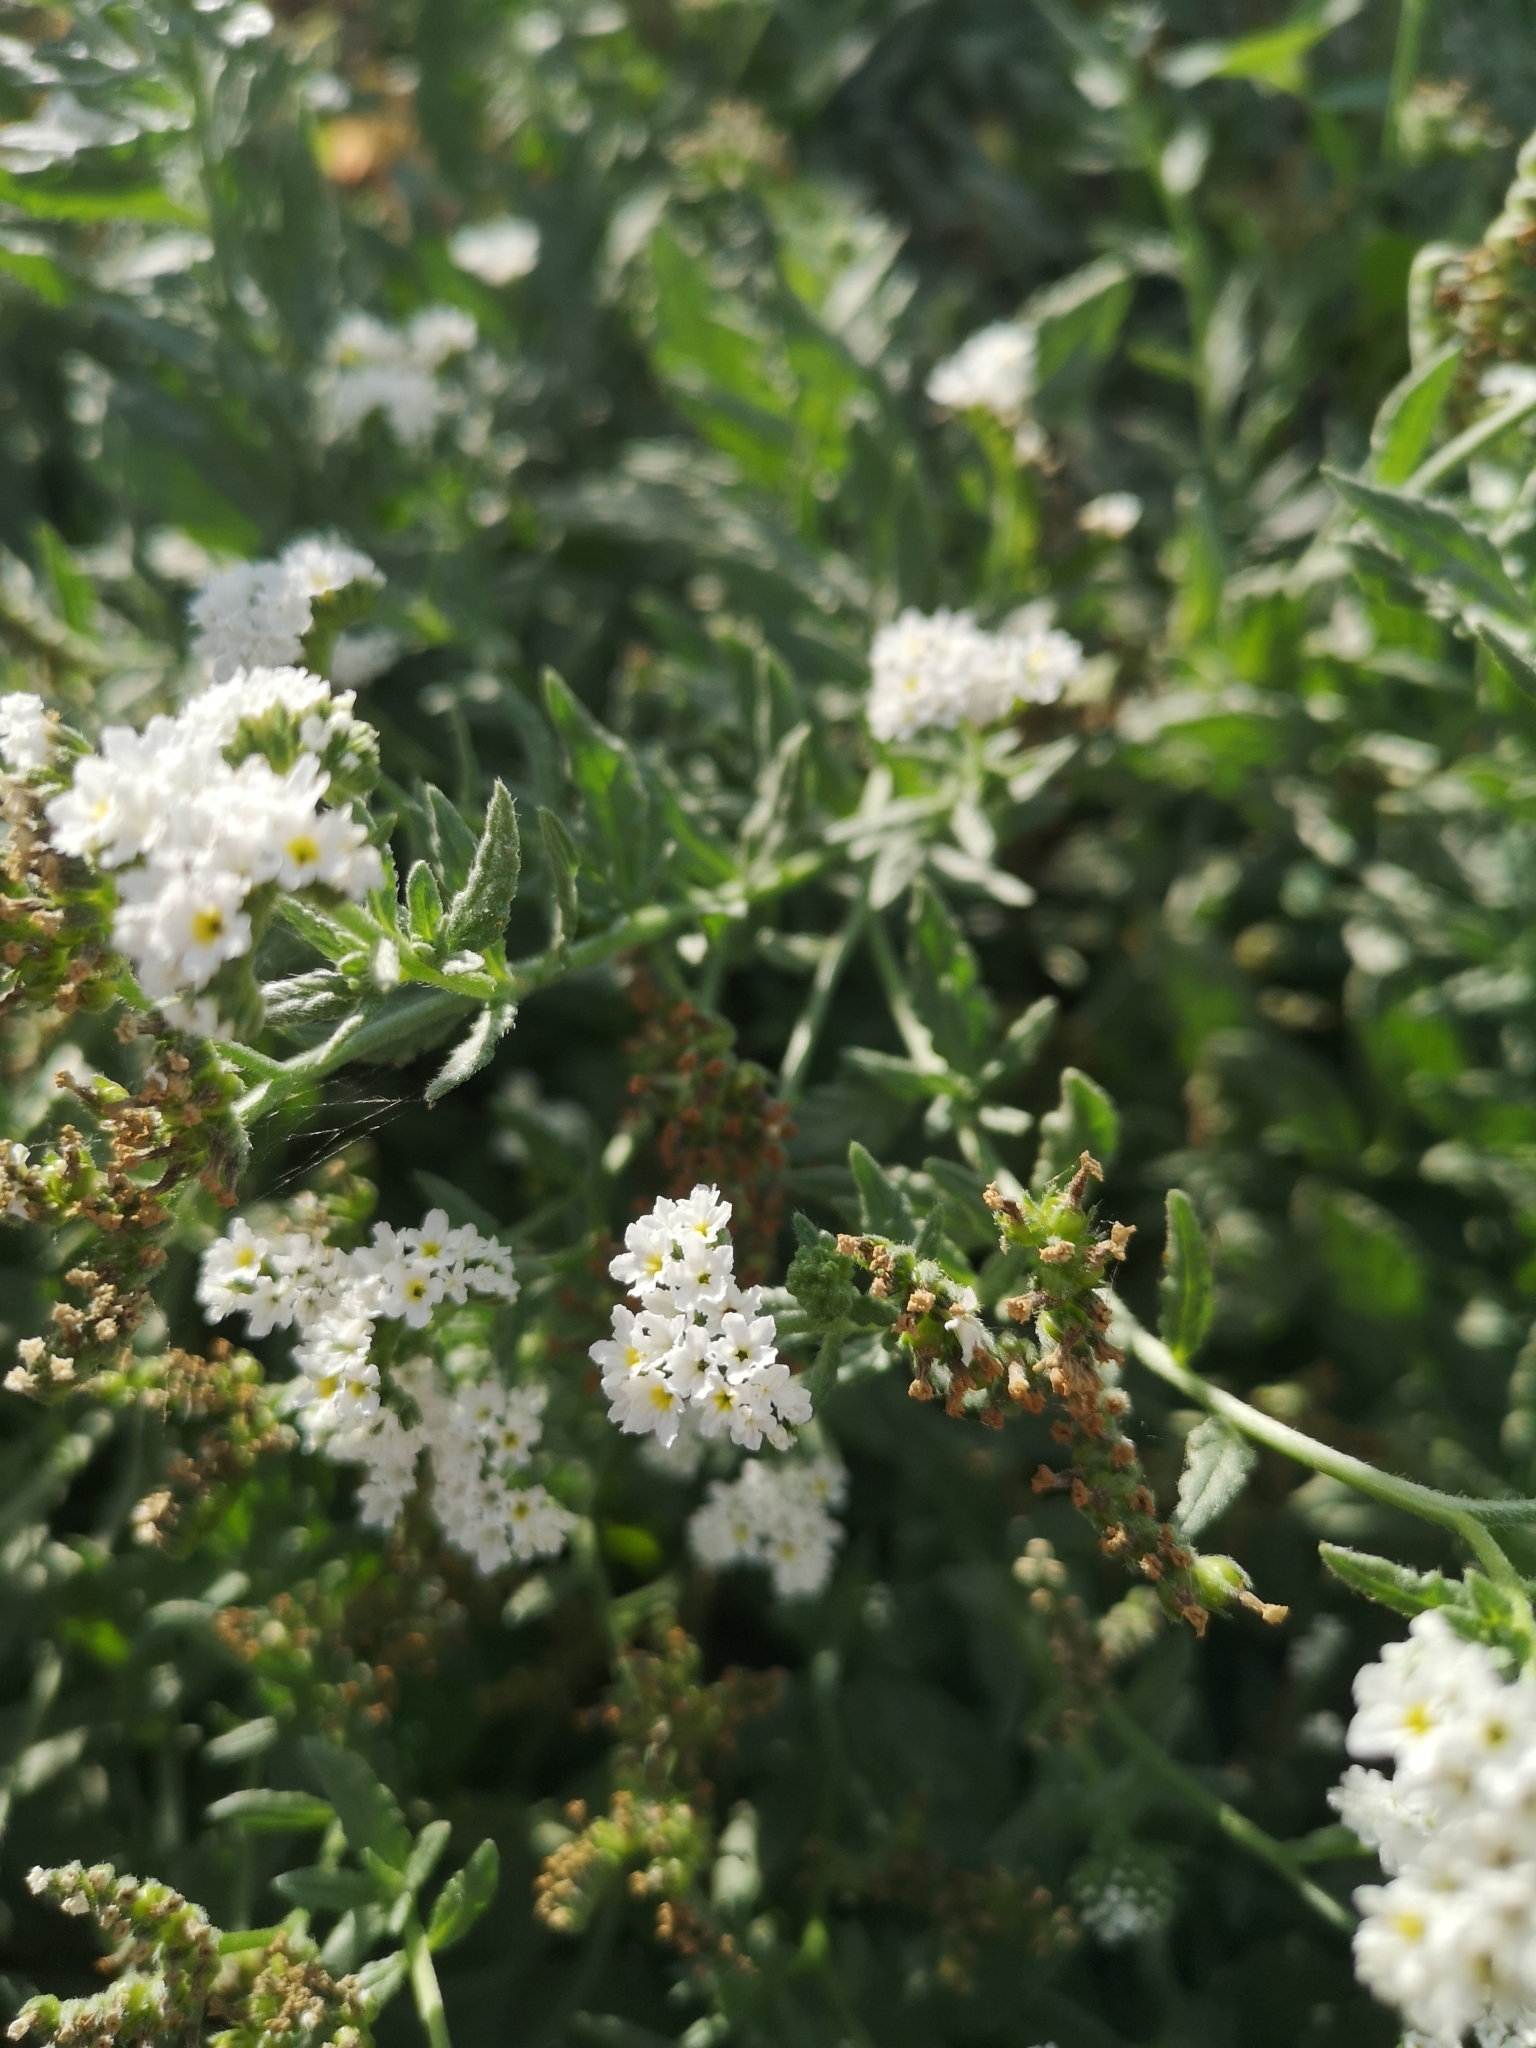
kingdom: Plantae
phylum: Tracheophyta
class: Magnoliopsida
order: Boraginales
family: Heliotropiaceae
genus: Heliotropium
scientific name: Heliotropium ramosissimum
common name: Wavy heliotrope
